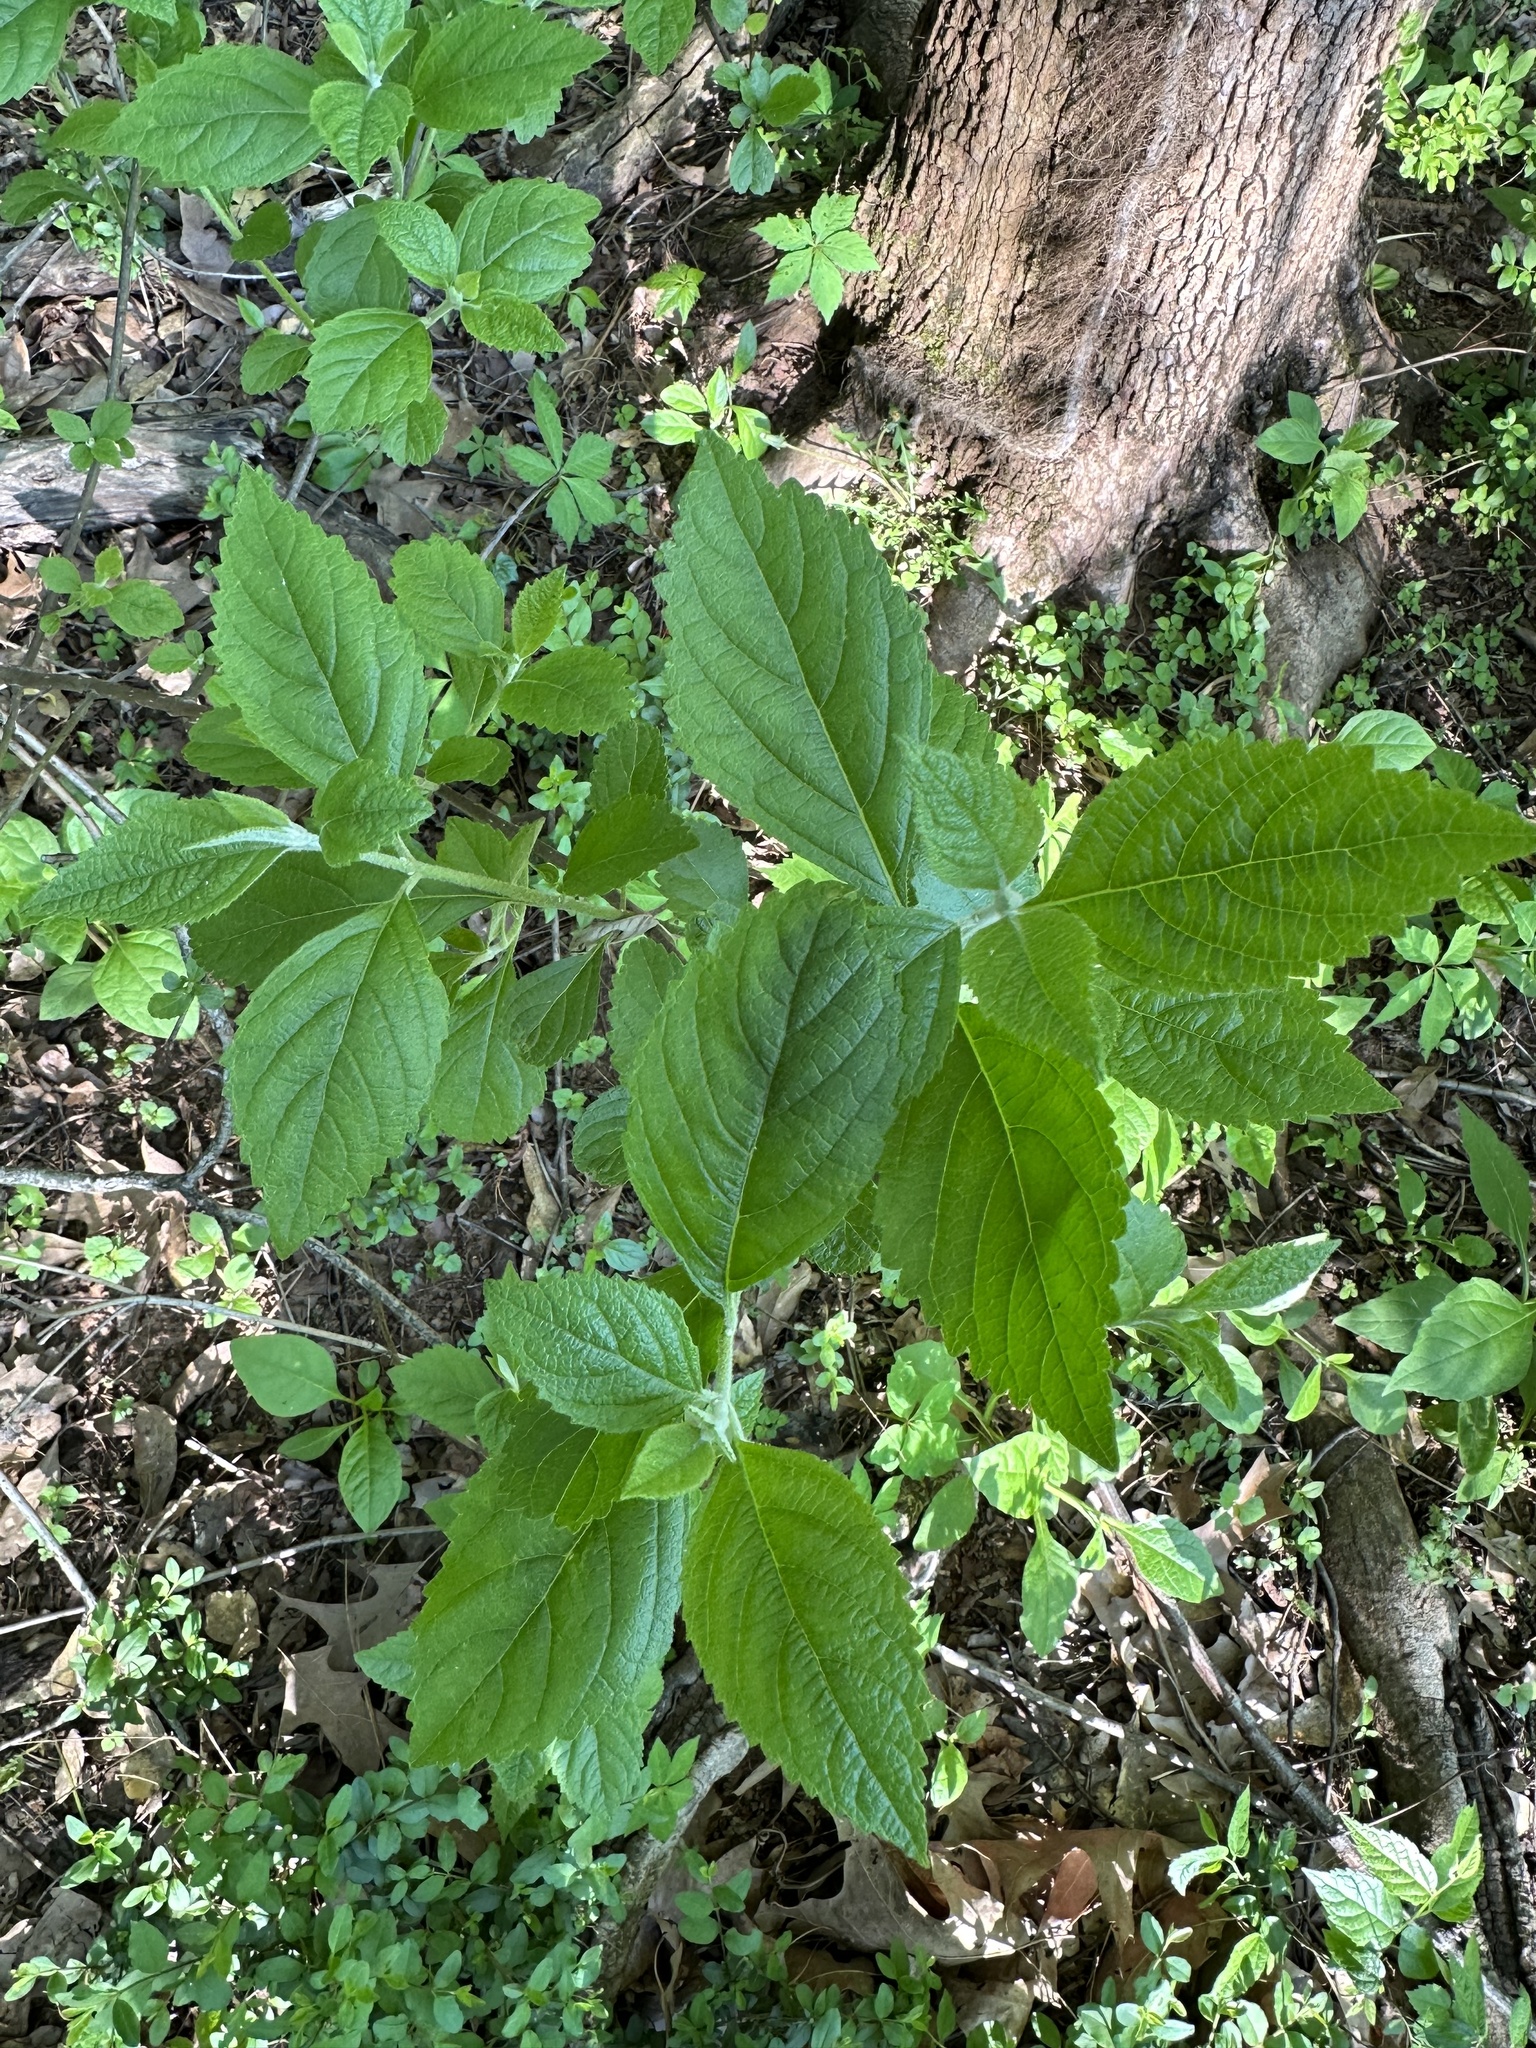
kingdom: Plantae
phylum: Tracheophyta
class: Magnoliopsida
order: Lamiales
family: Lamiaceae
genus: Callicarpa
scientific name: Callicarpa americana
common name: American beautyberry
